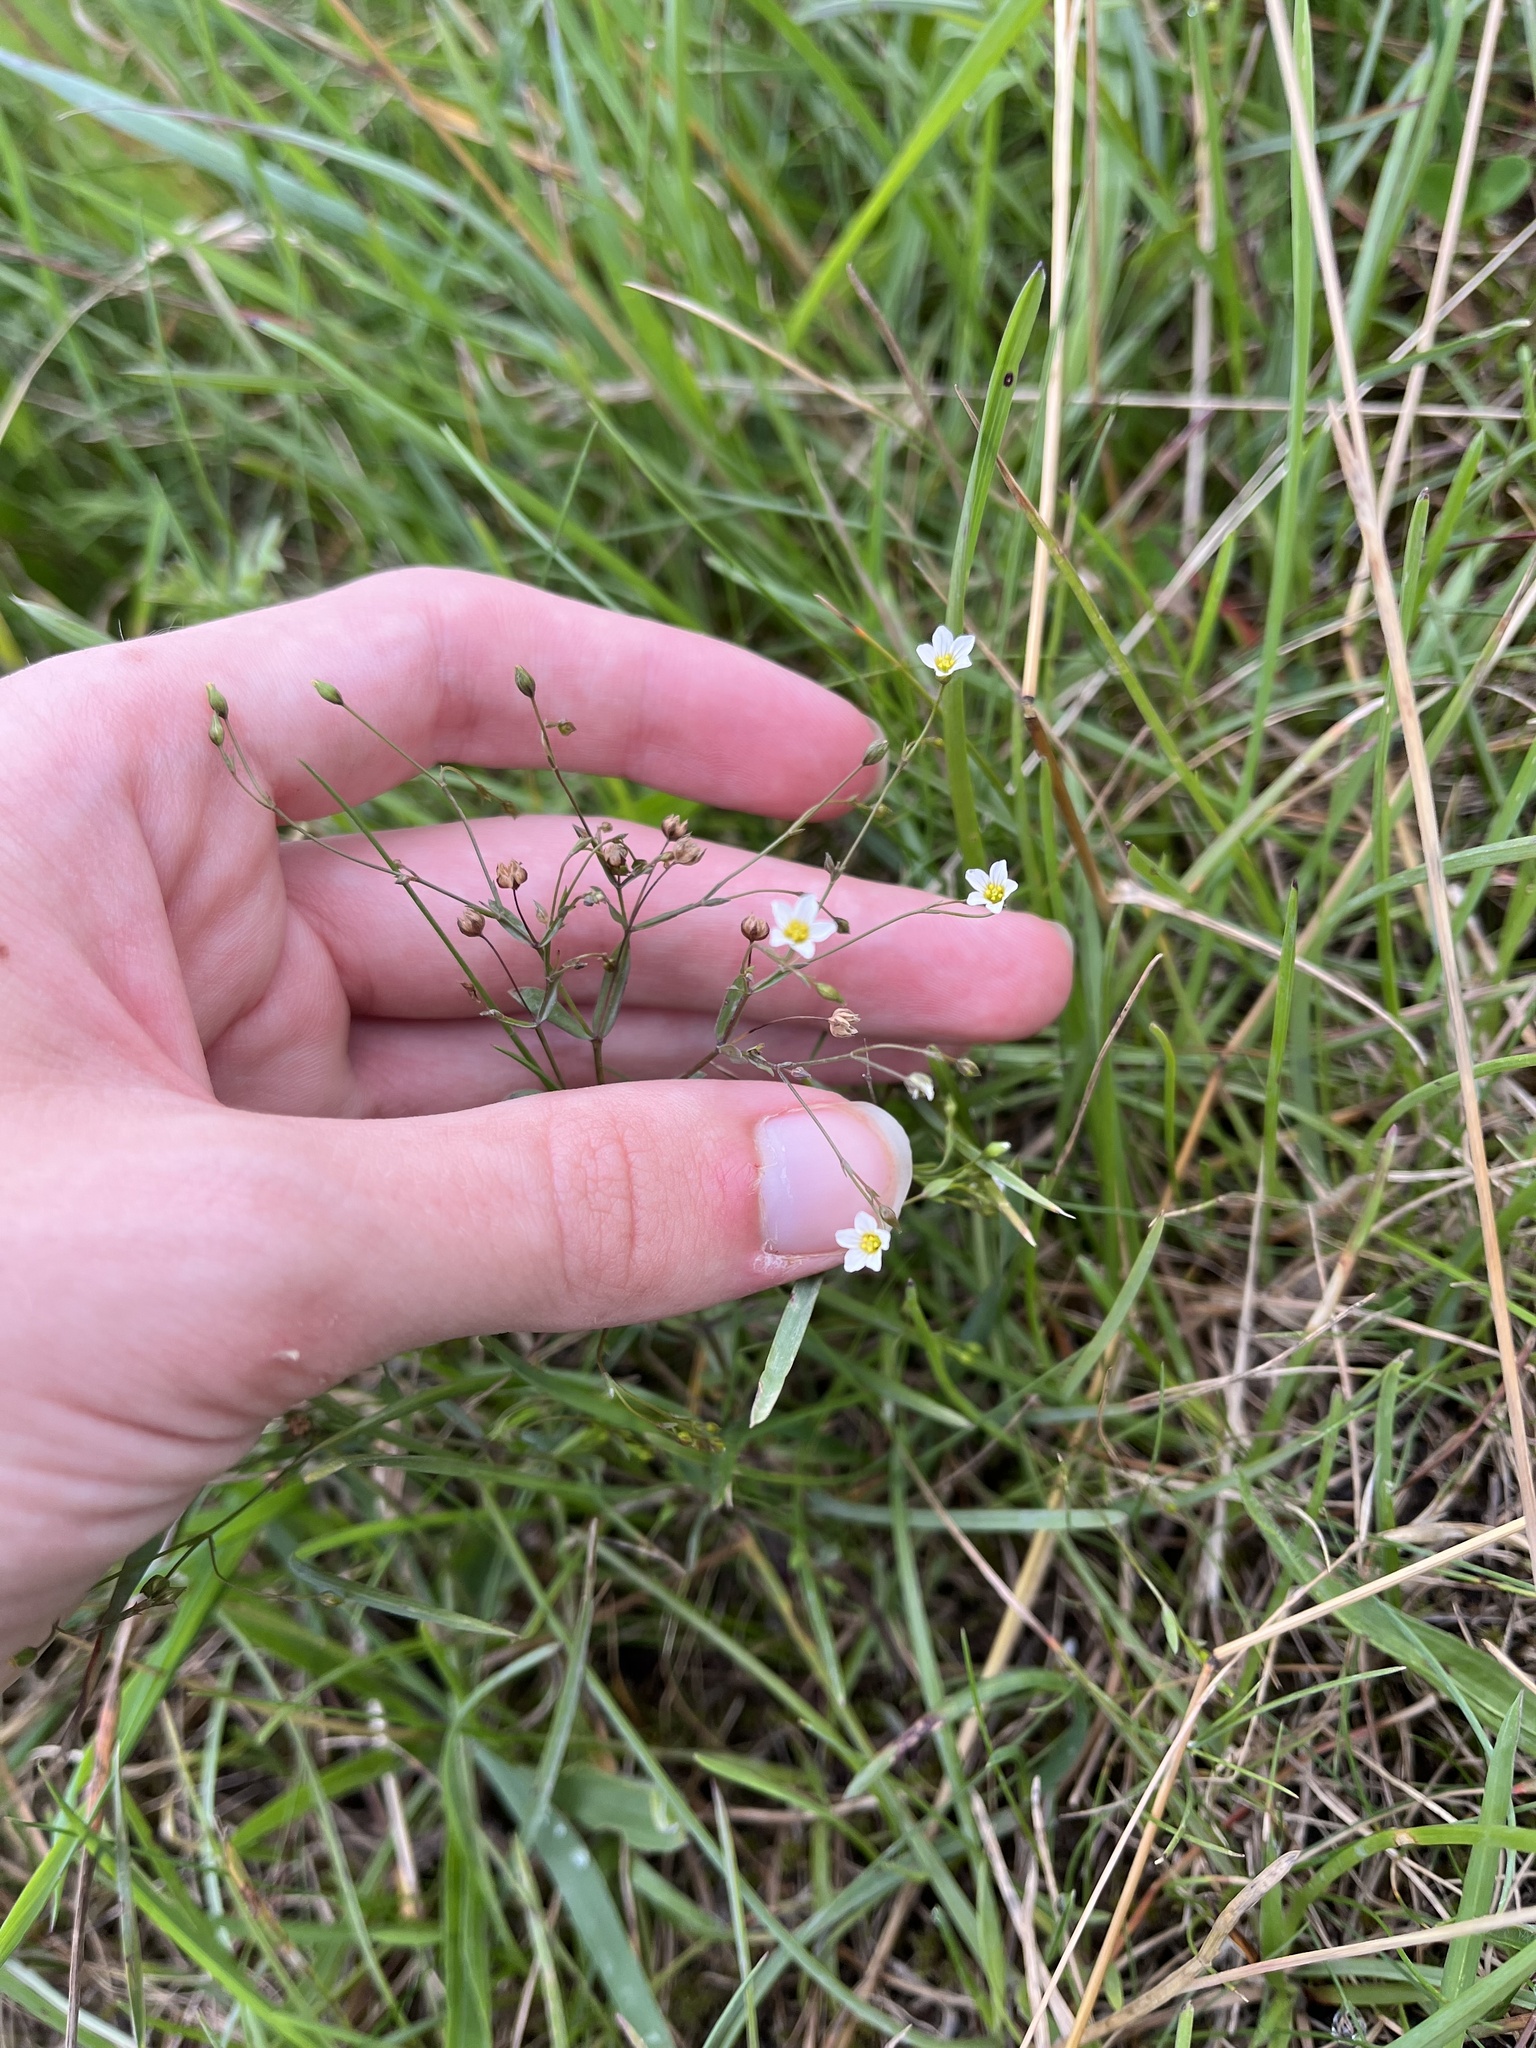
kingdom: Plantae
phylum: Tracheophyta
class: Magnoliopsida
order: Malpighiales
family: Linaceae
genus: Linum
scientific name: Linum catharticum
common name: Fairy flax
